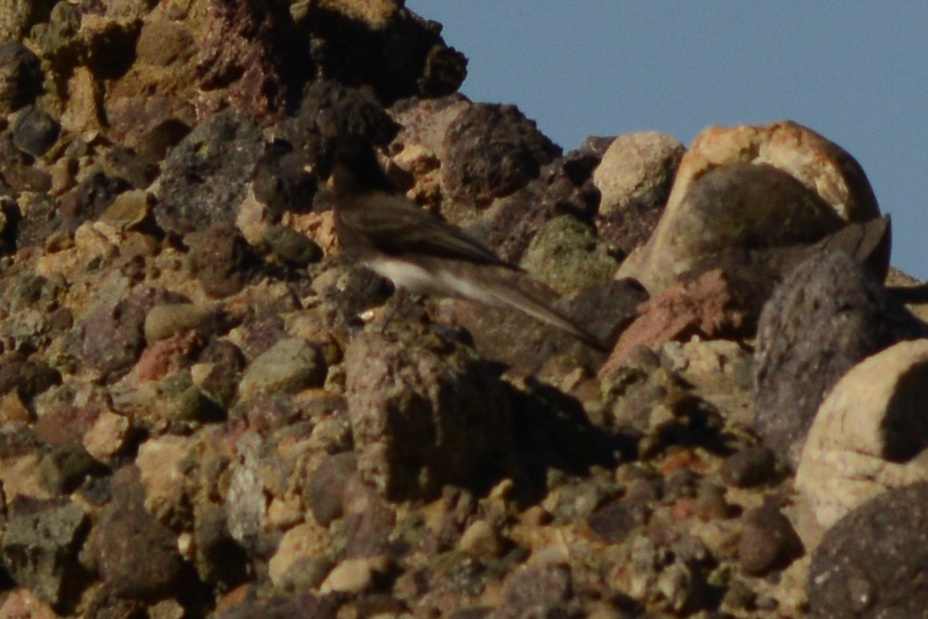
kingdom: Animalia
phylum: Chordata
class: Aves
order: Passeriformes
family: Tyrannidae
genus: Sayornis
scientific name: Sayornis nigricans
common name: Black phoebe
